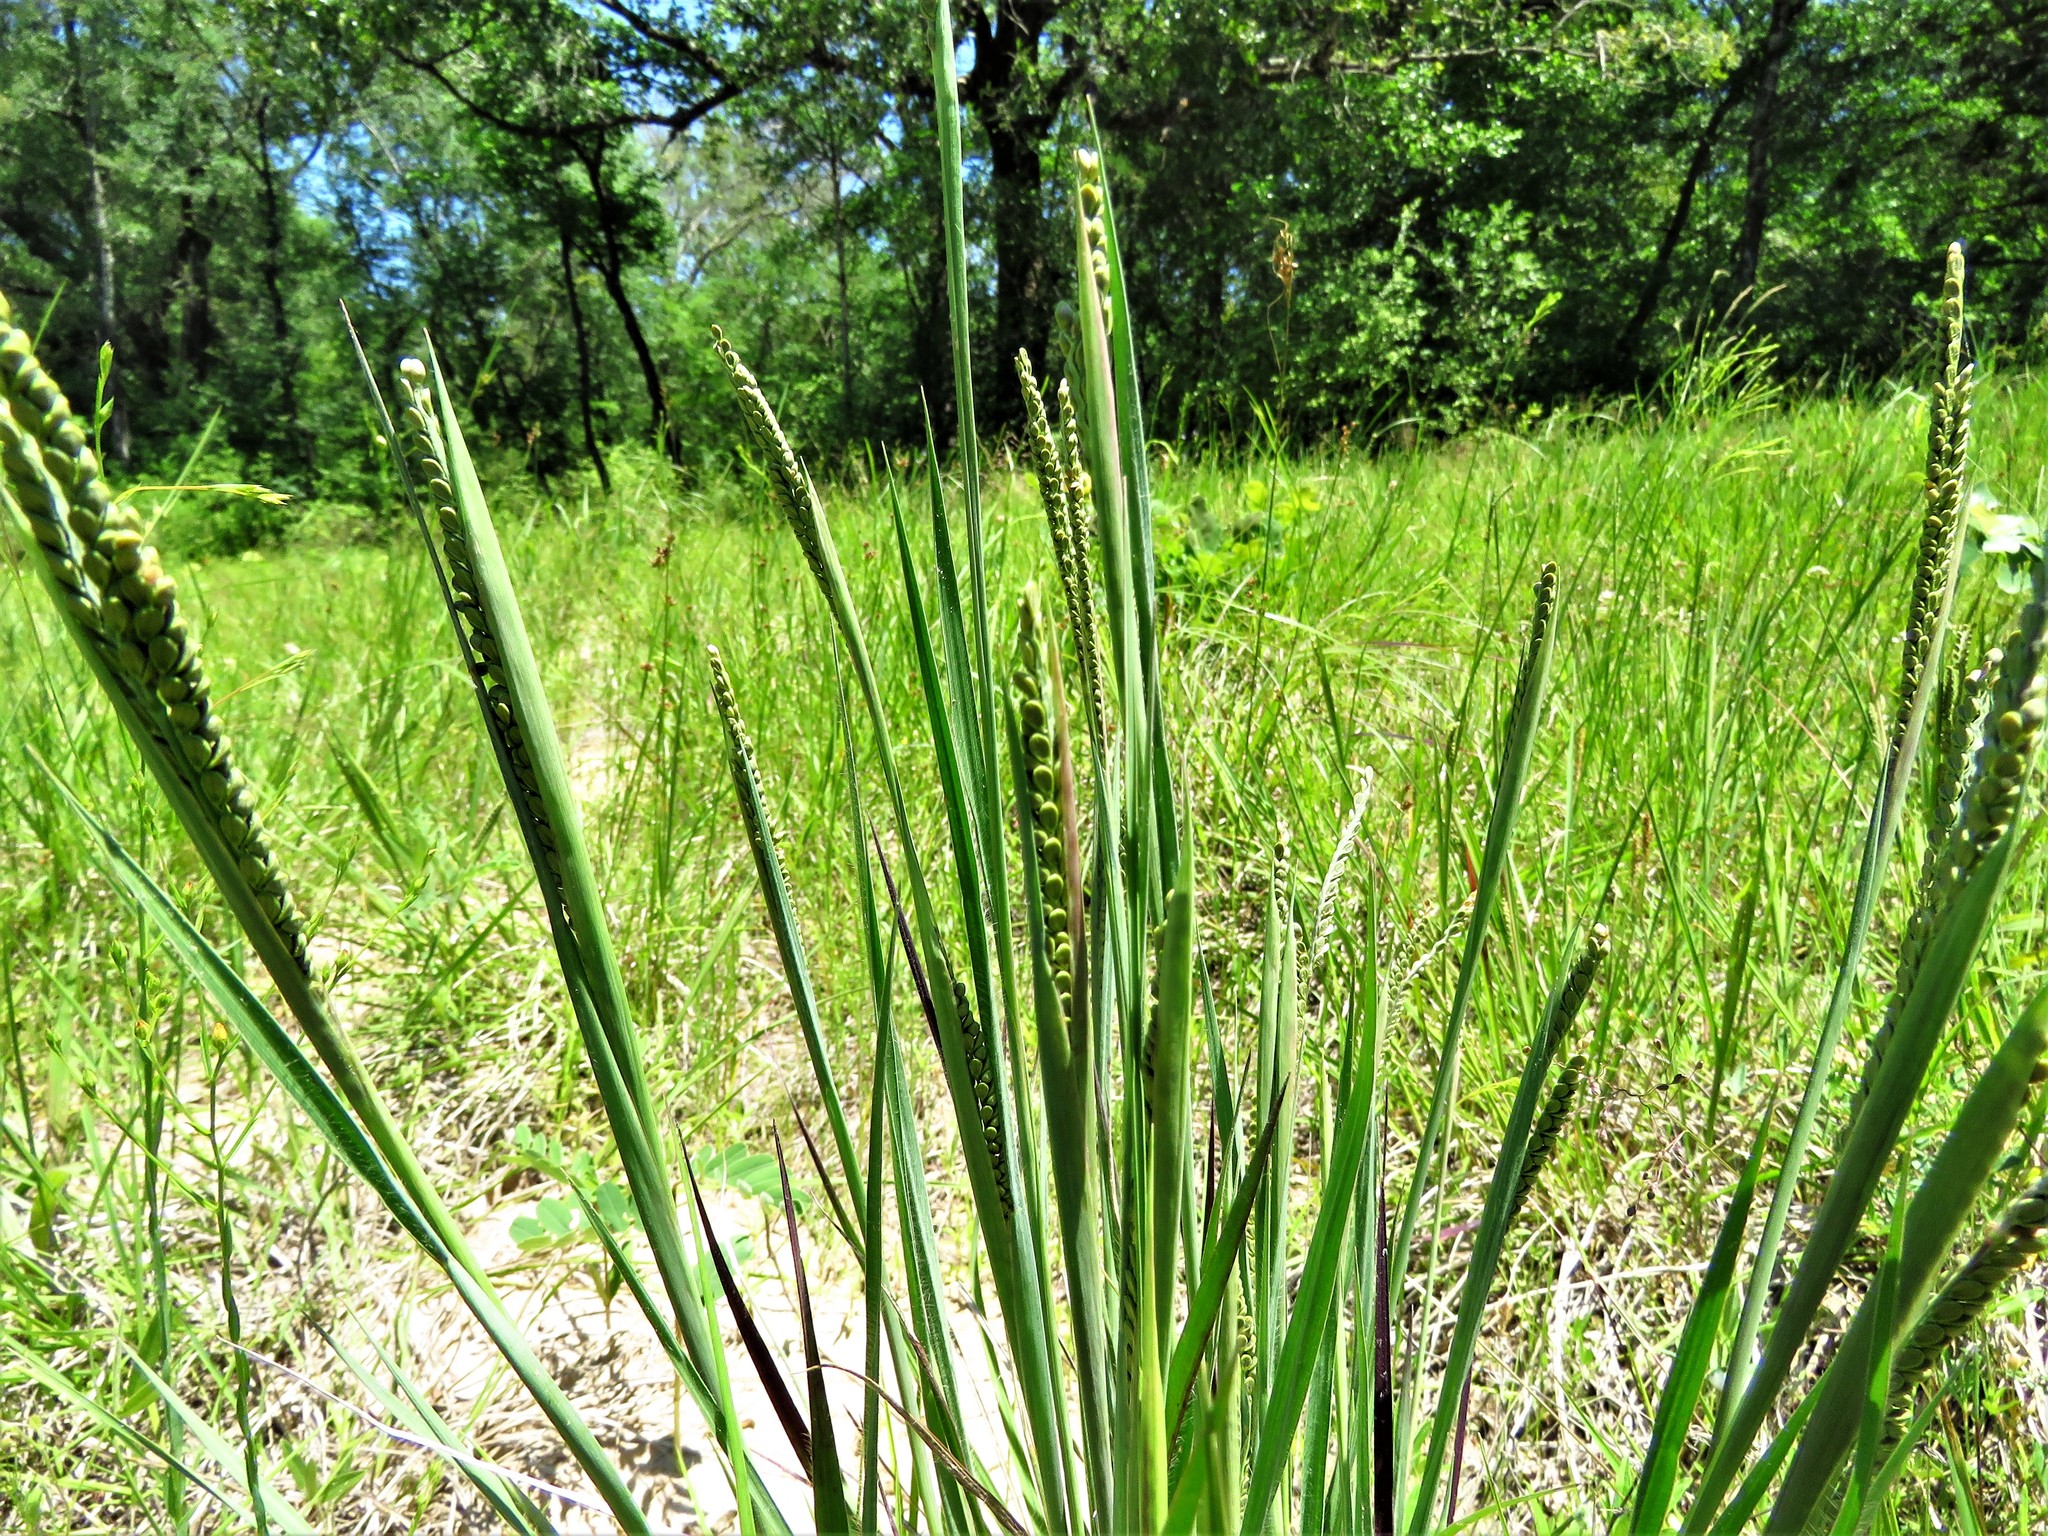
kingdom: Plantae
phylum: Tracheophyta
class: Liliopsida
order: Poales
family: Poaceae
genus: Paspalum
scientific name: Paspalum plicatulum
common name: Top paspalum
